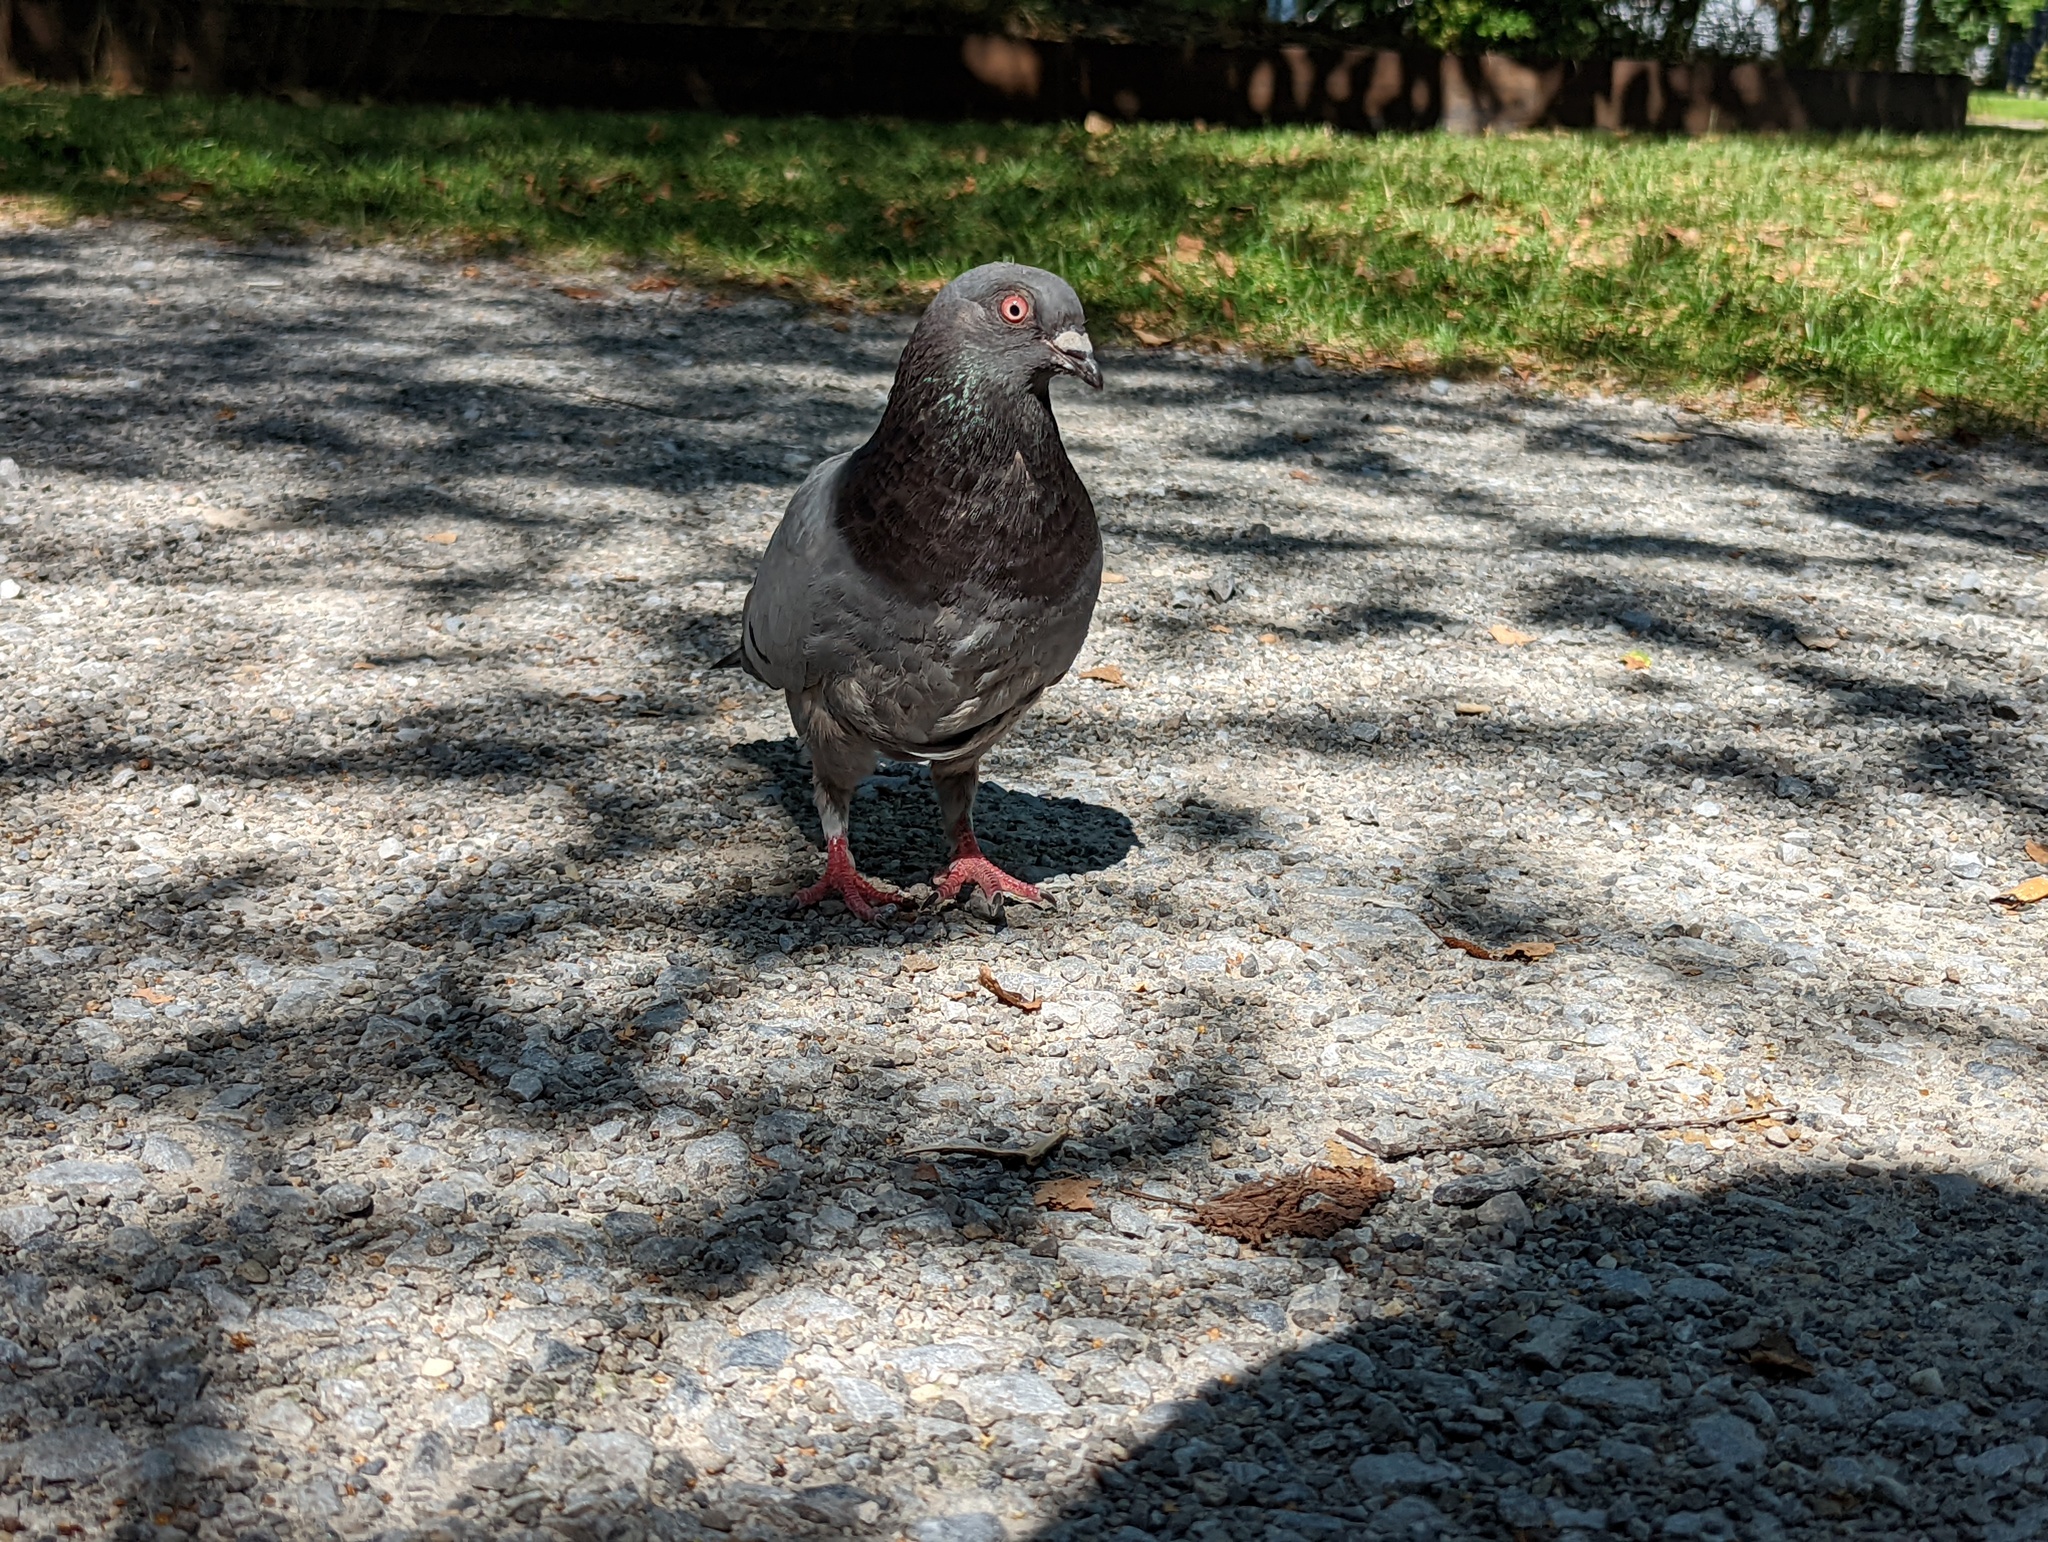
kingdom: Animalia
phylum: Chordata
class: Aves
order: Columbiformes
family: Columbidae
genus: Columba
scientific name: Columba livia
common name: Rock pigeon
